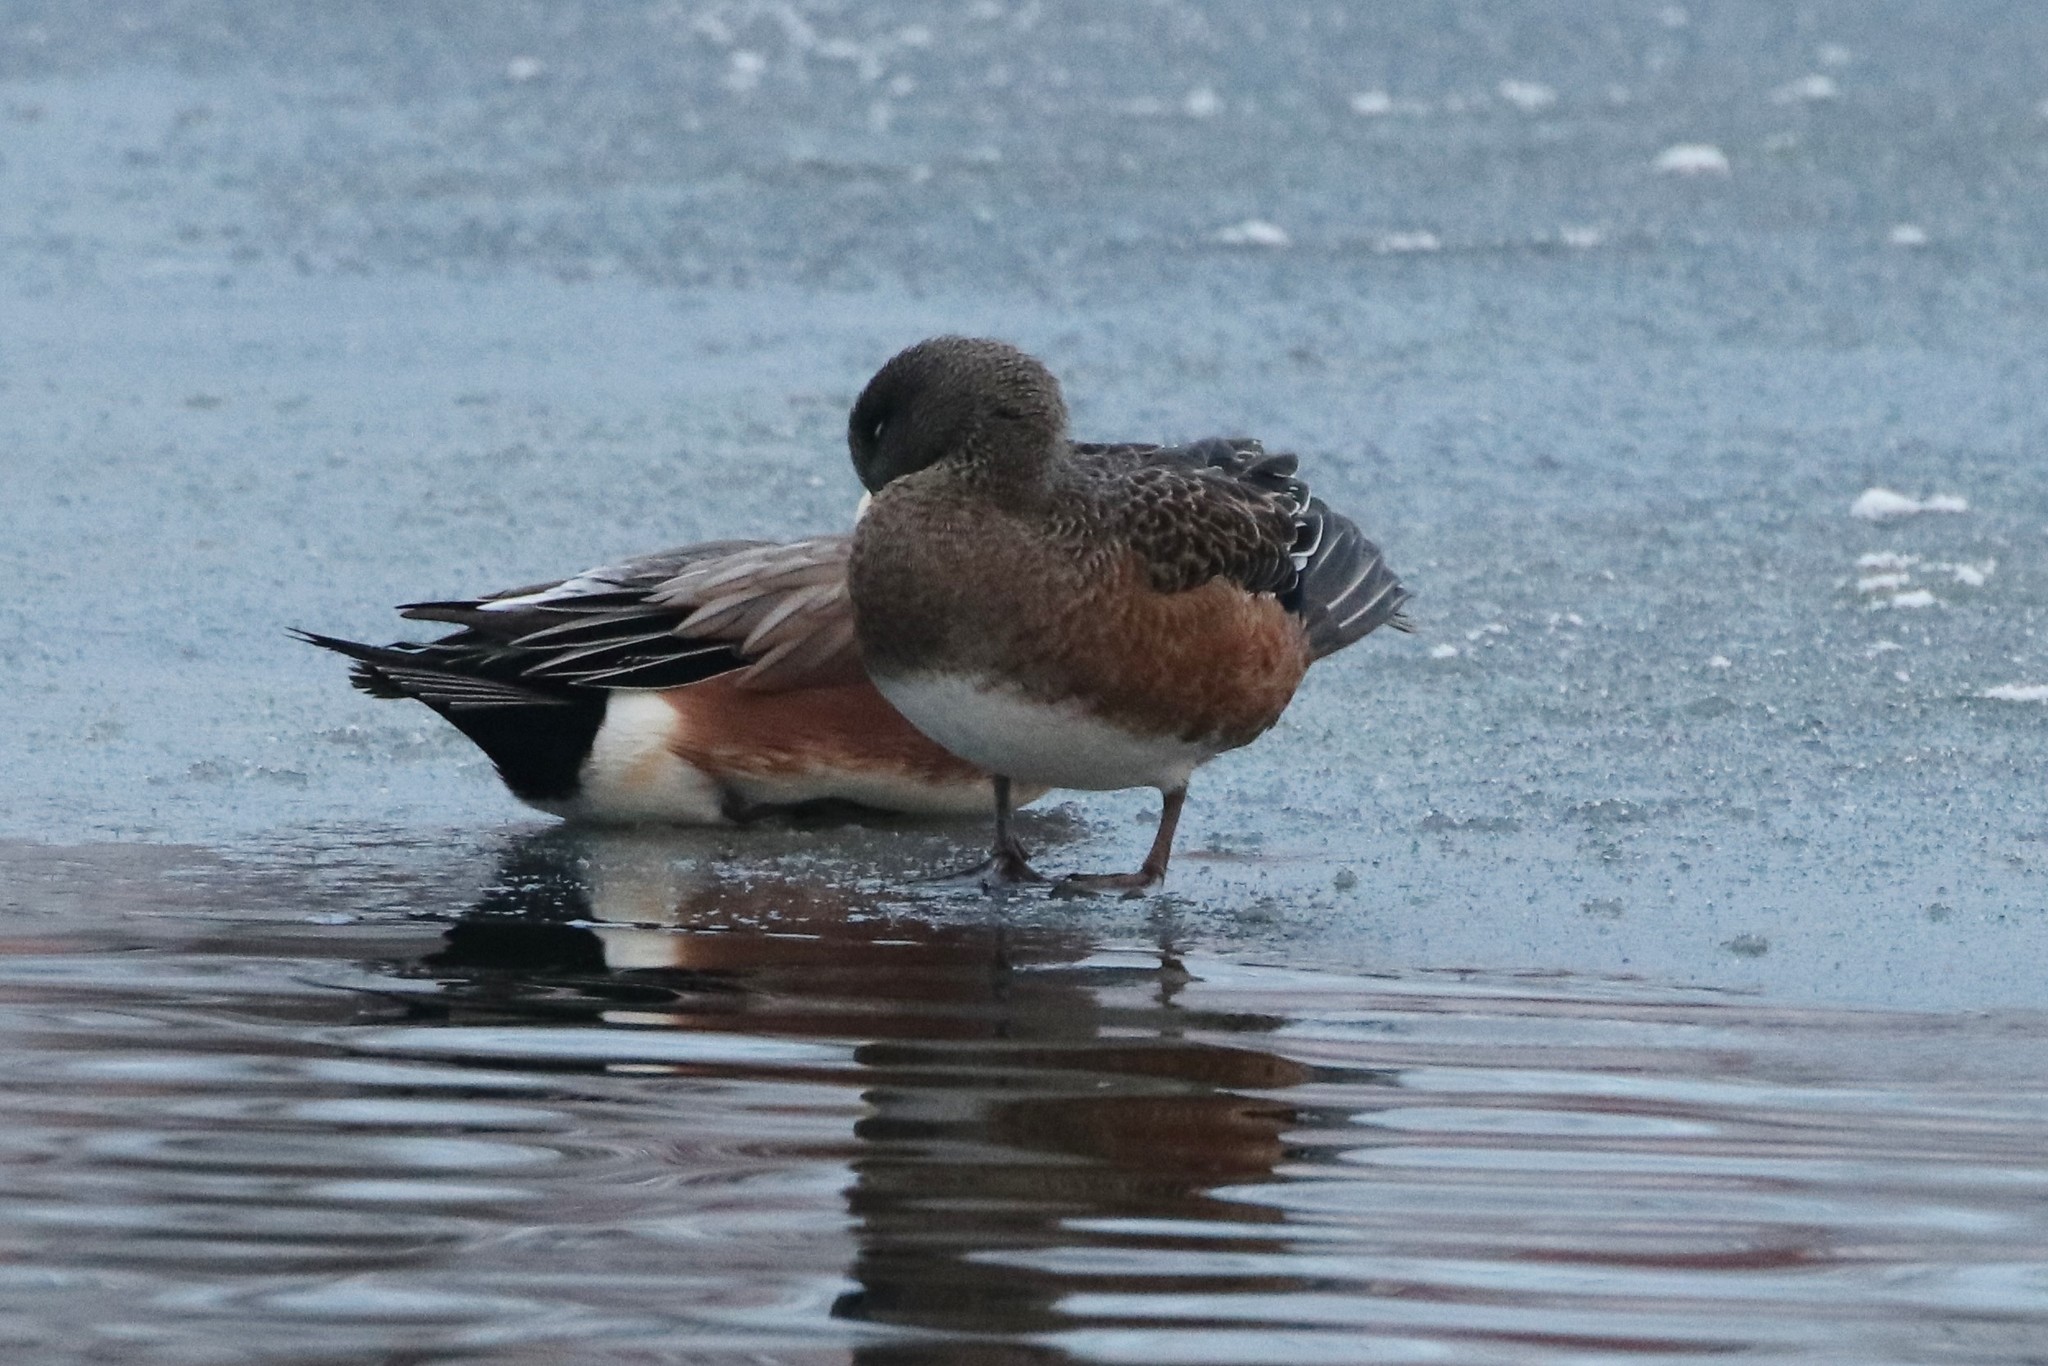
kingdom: Animalia
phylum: Chordata
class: Aves
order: Anseriformes
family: Anatidae
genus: Mareca
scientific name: Mareca americana
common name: American wigeon
